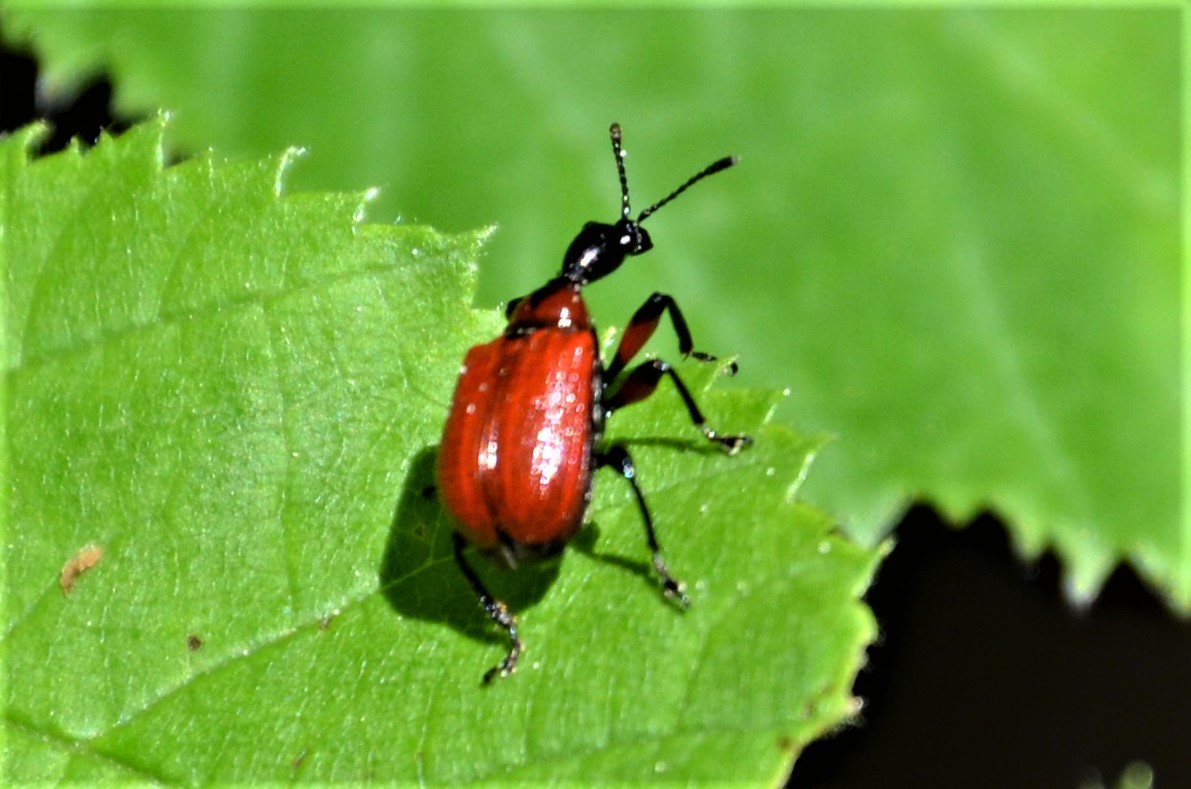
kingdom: Animalia
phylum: Arthropoda
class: Insecta
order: Coleoptera
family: Attelabidae
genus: Apoderus
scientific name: Apoderus coryli
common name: Hazel leaf roller
